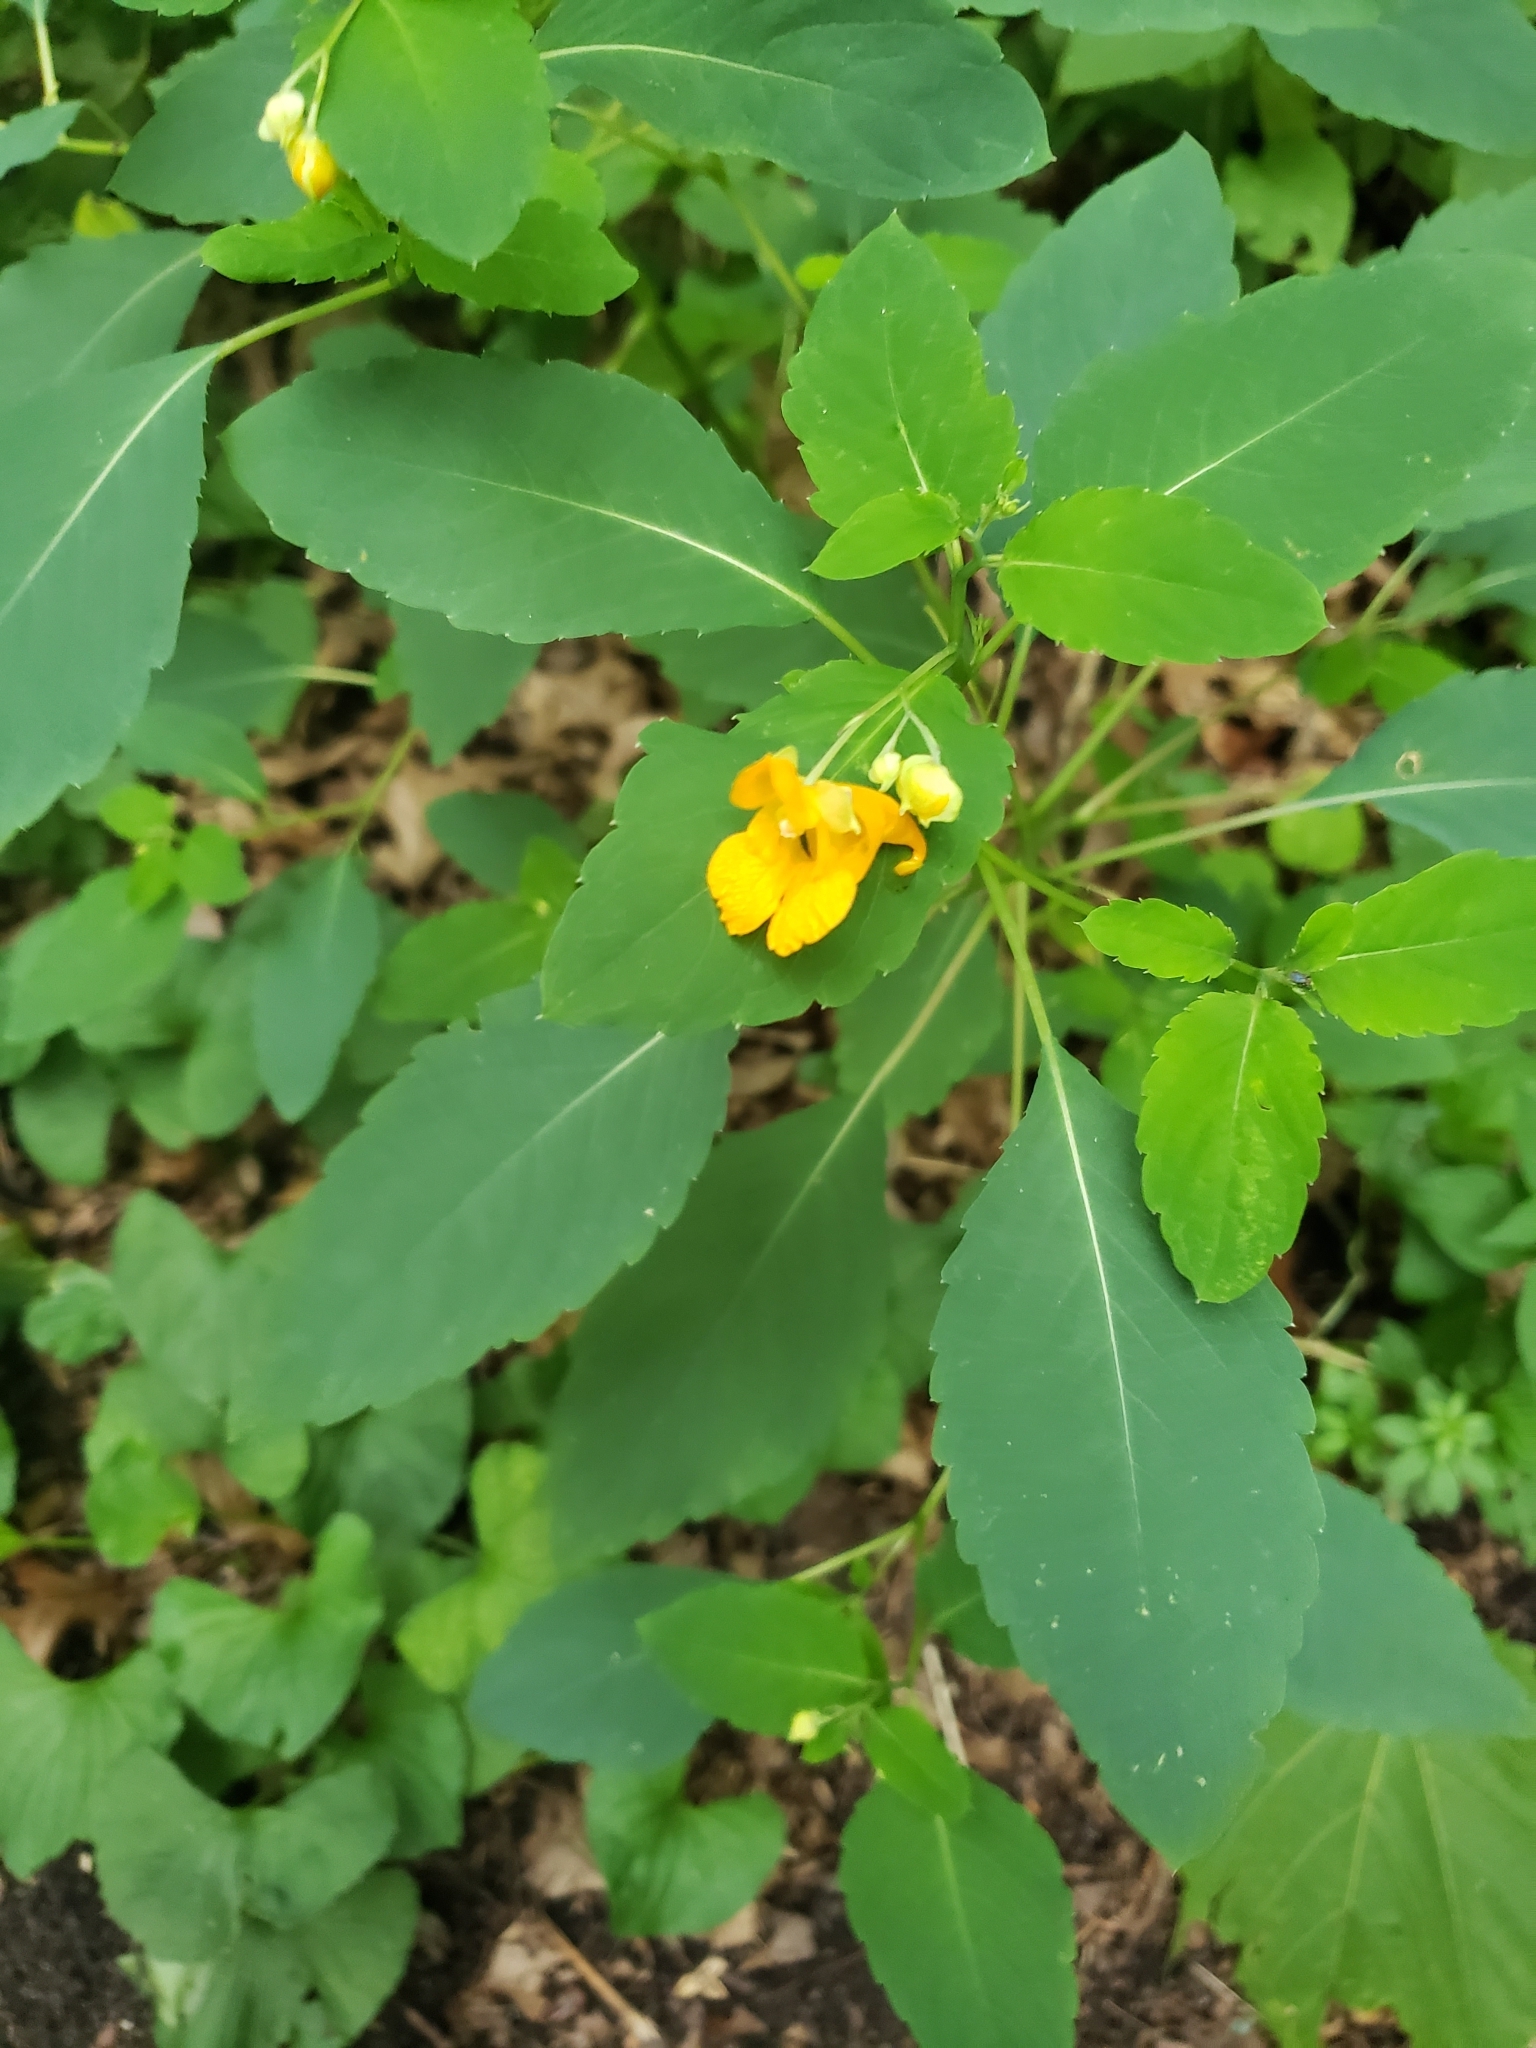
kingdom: Plantae
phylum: Tracheophyta
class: Magnoliopsida
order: Ericales
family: Balsaminaceae
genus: Impatiens
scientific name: Impatiens pallida
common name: Pale snapweed
